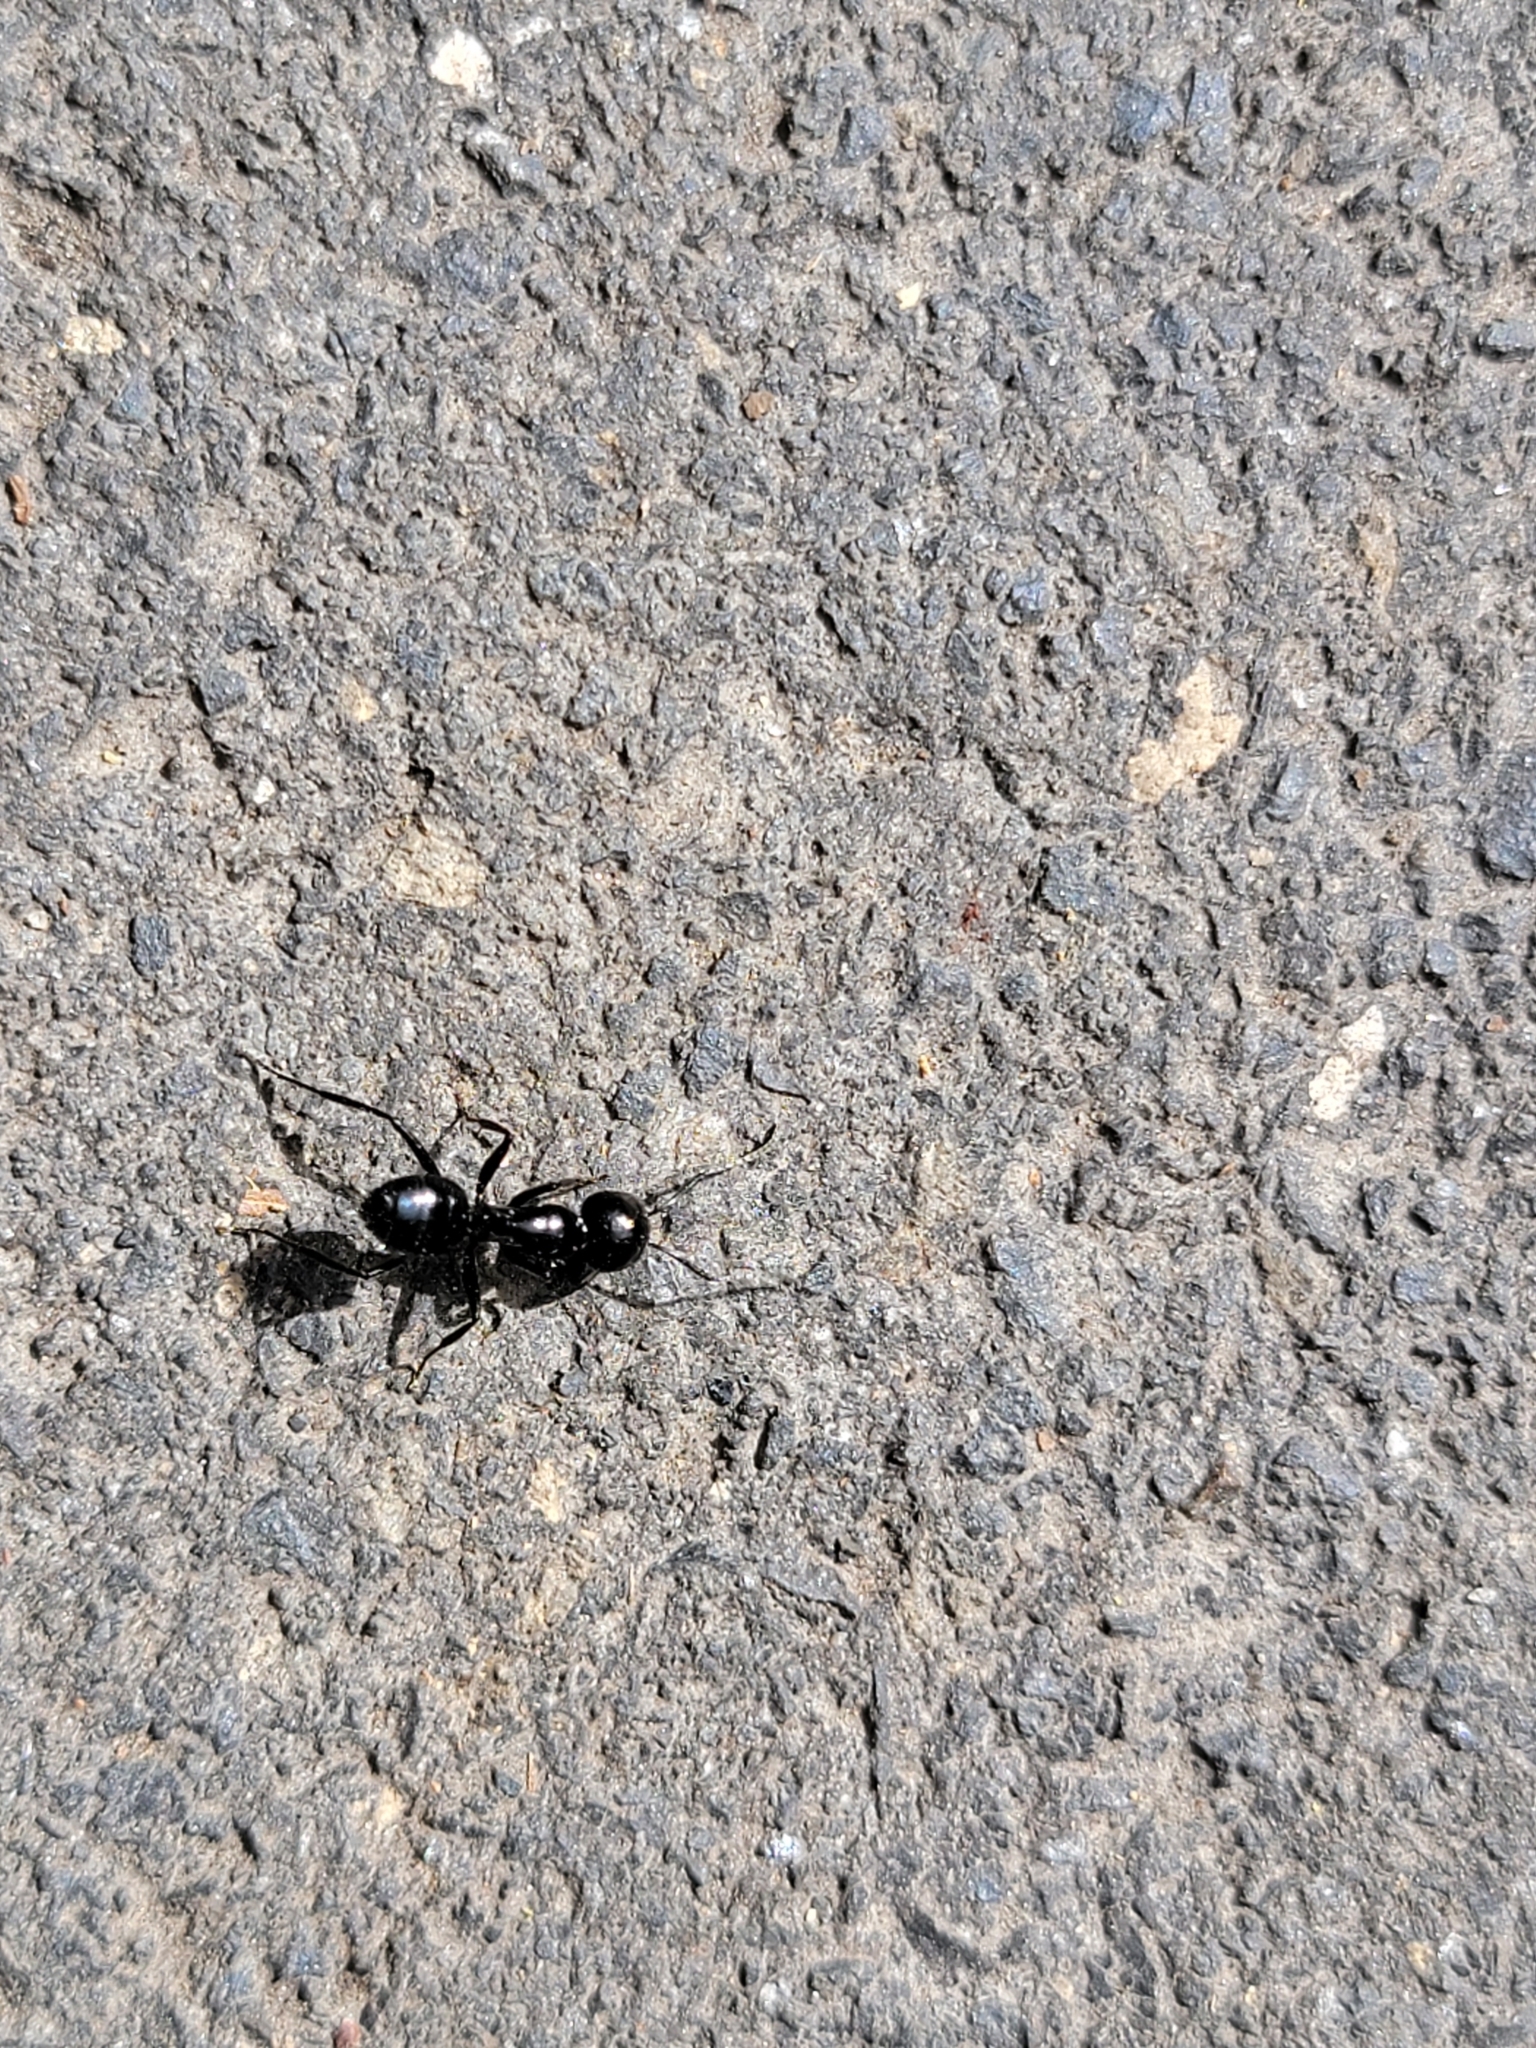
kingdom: Animalia
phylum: Arthropoda
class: Insecta
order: Hymenoptera
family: Formicidae
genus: Camponotus
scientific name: Camponotus
